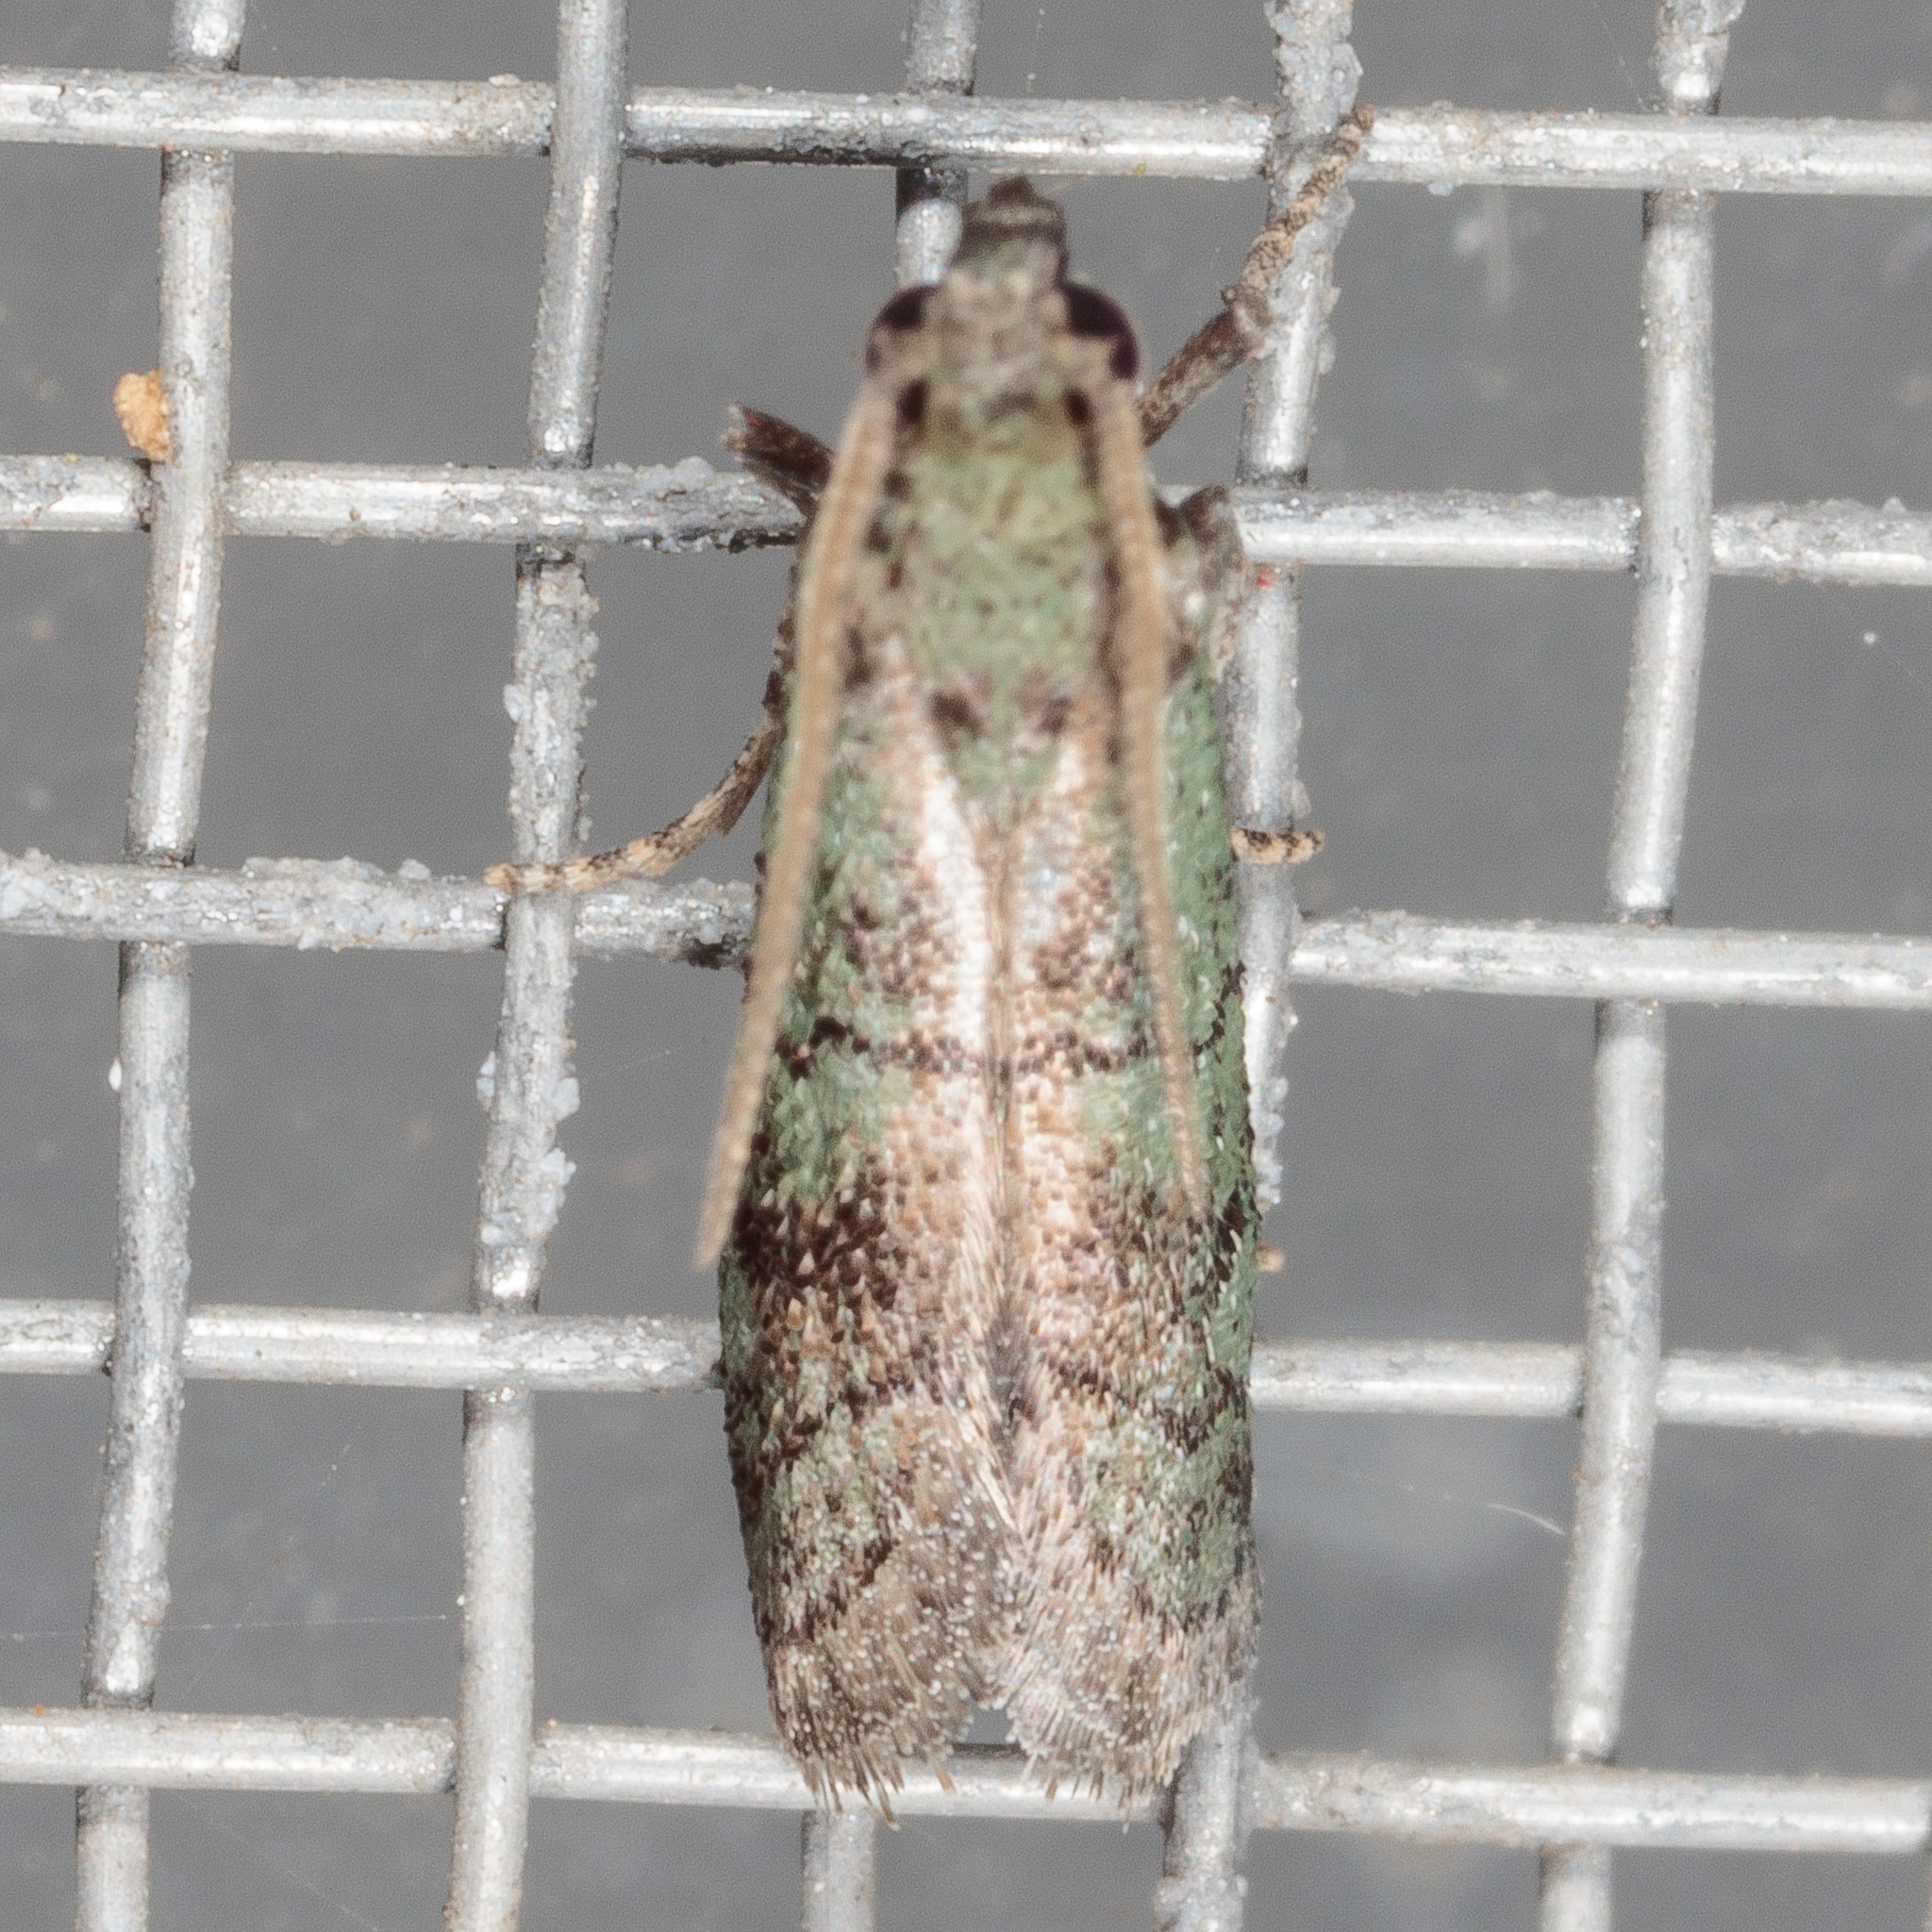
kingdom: Animalia
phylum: Arthropoda
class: Insecta
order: Lepidoptera
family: Pyralidae
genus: Cacotherapia
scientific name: Cacotherapia flexilinealis
